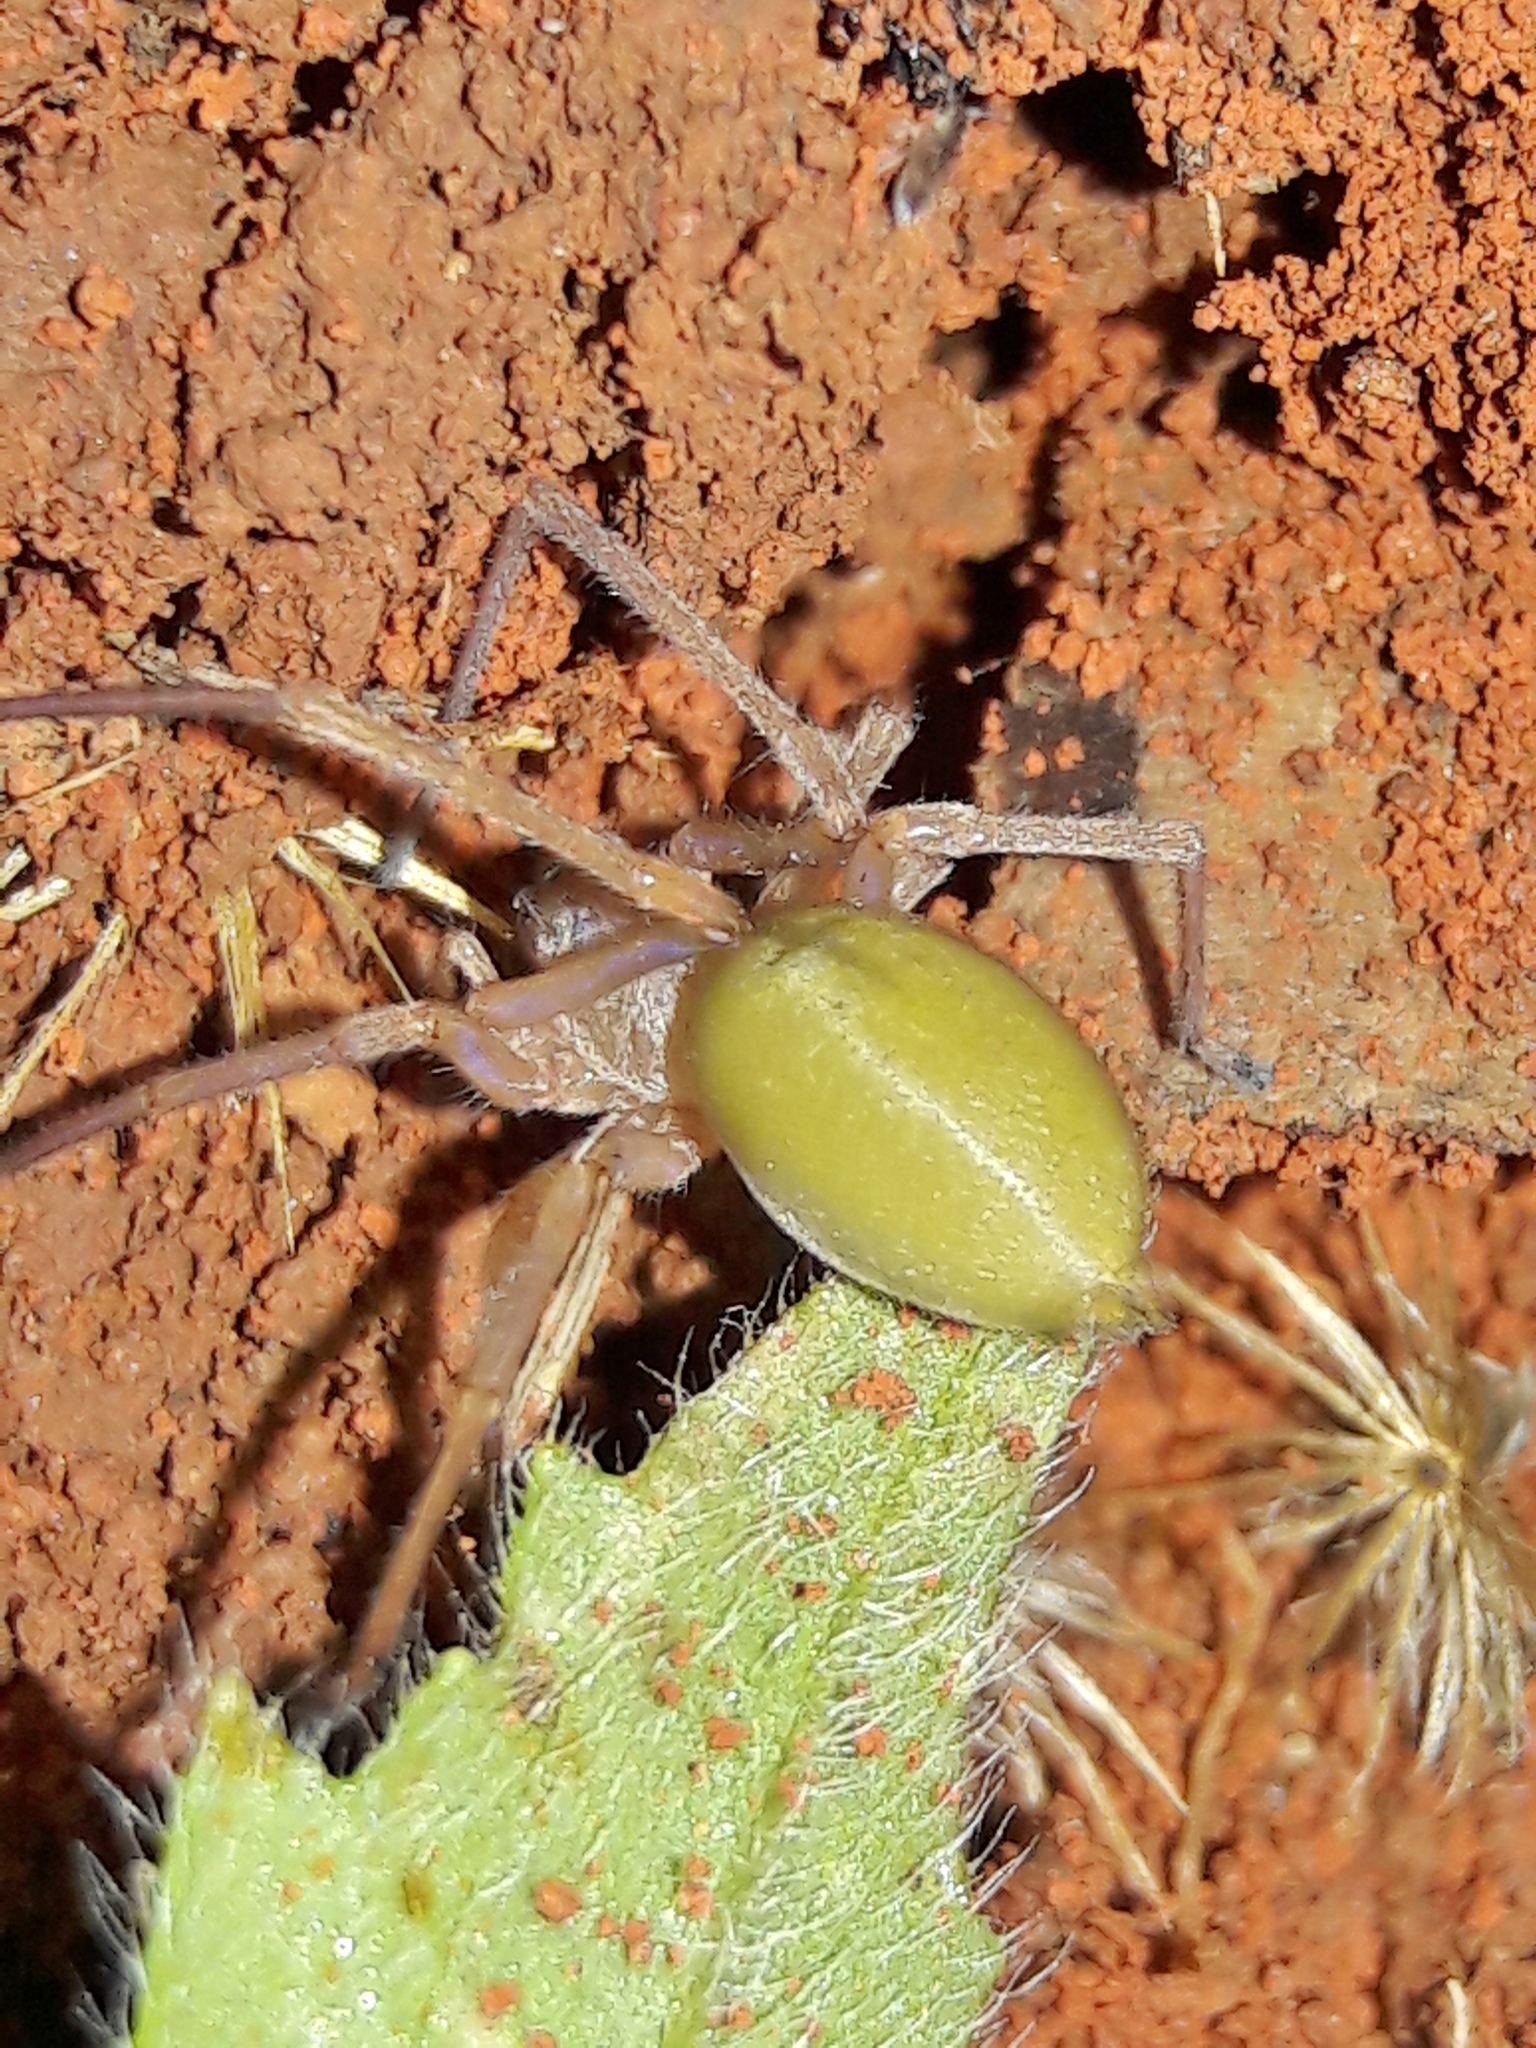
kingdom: Animalia
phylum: Arthropoda
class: Arachnida
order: Araneae
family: Cheiracanthiidae
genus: Cheiracanthium
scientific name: Cheiracanthium inclusum
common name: Long-legged sac spiders
